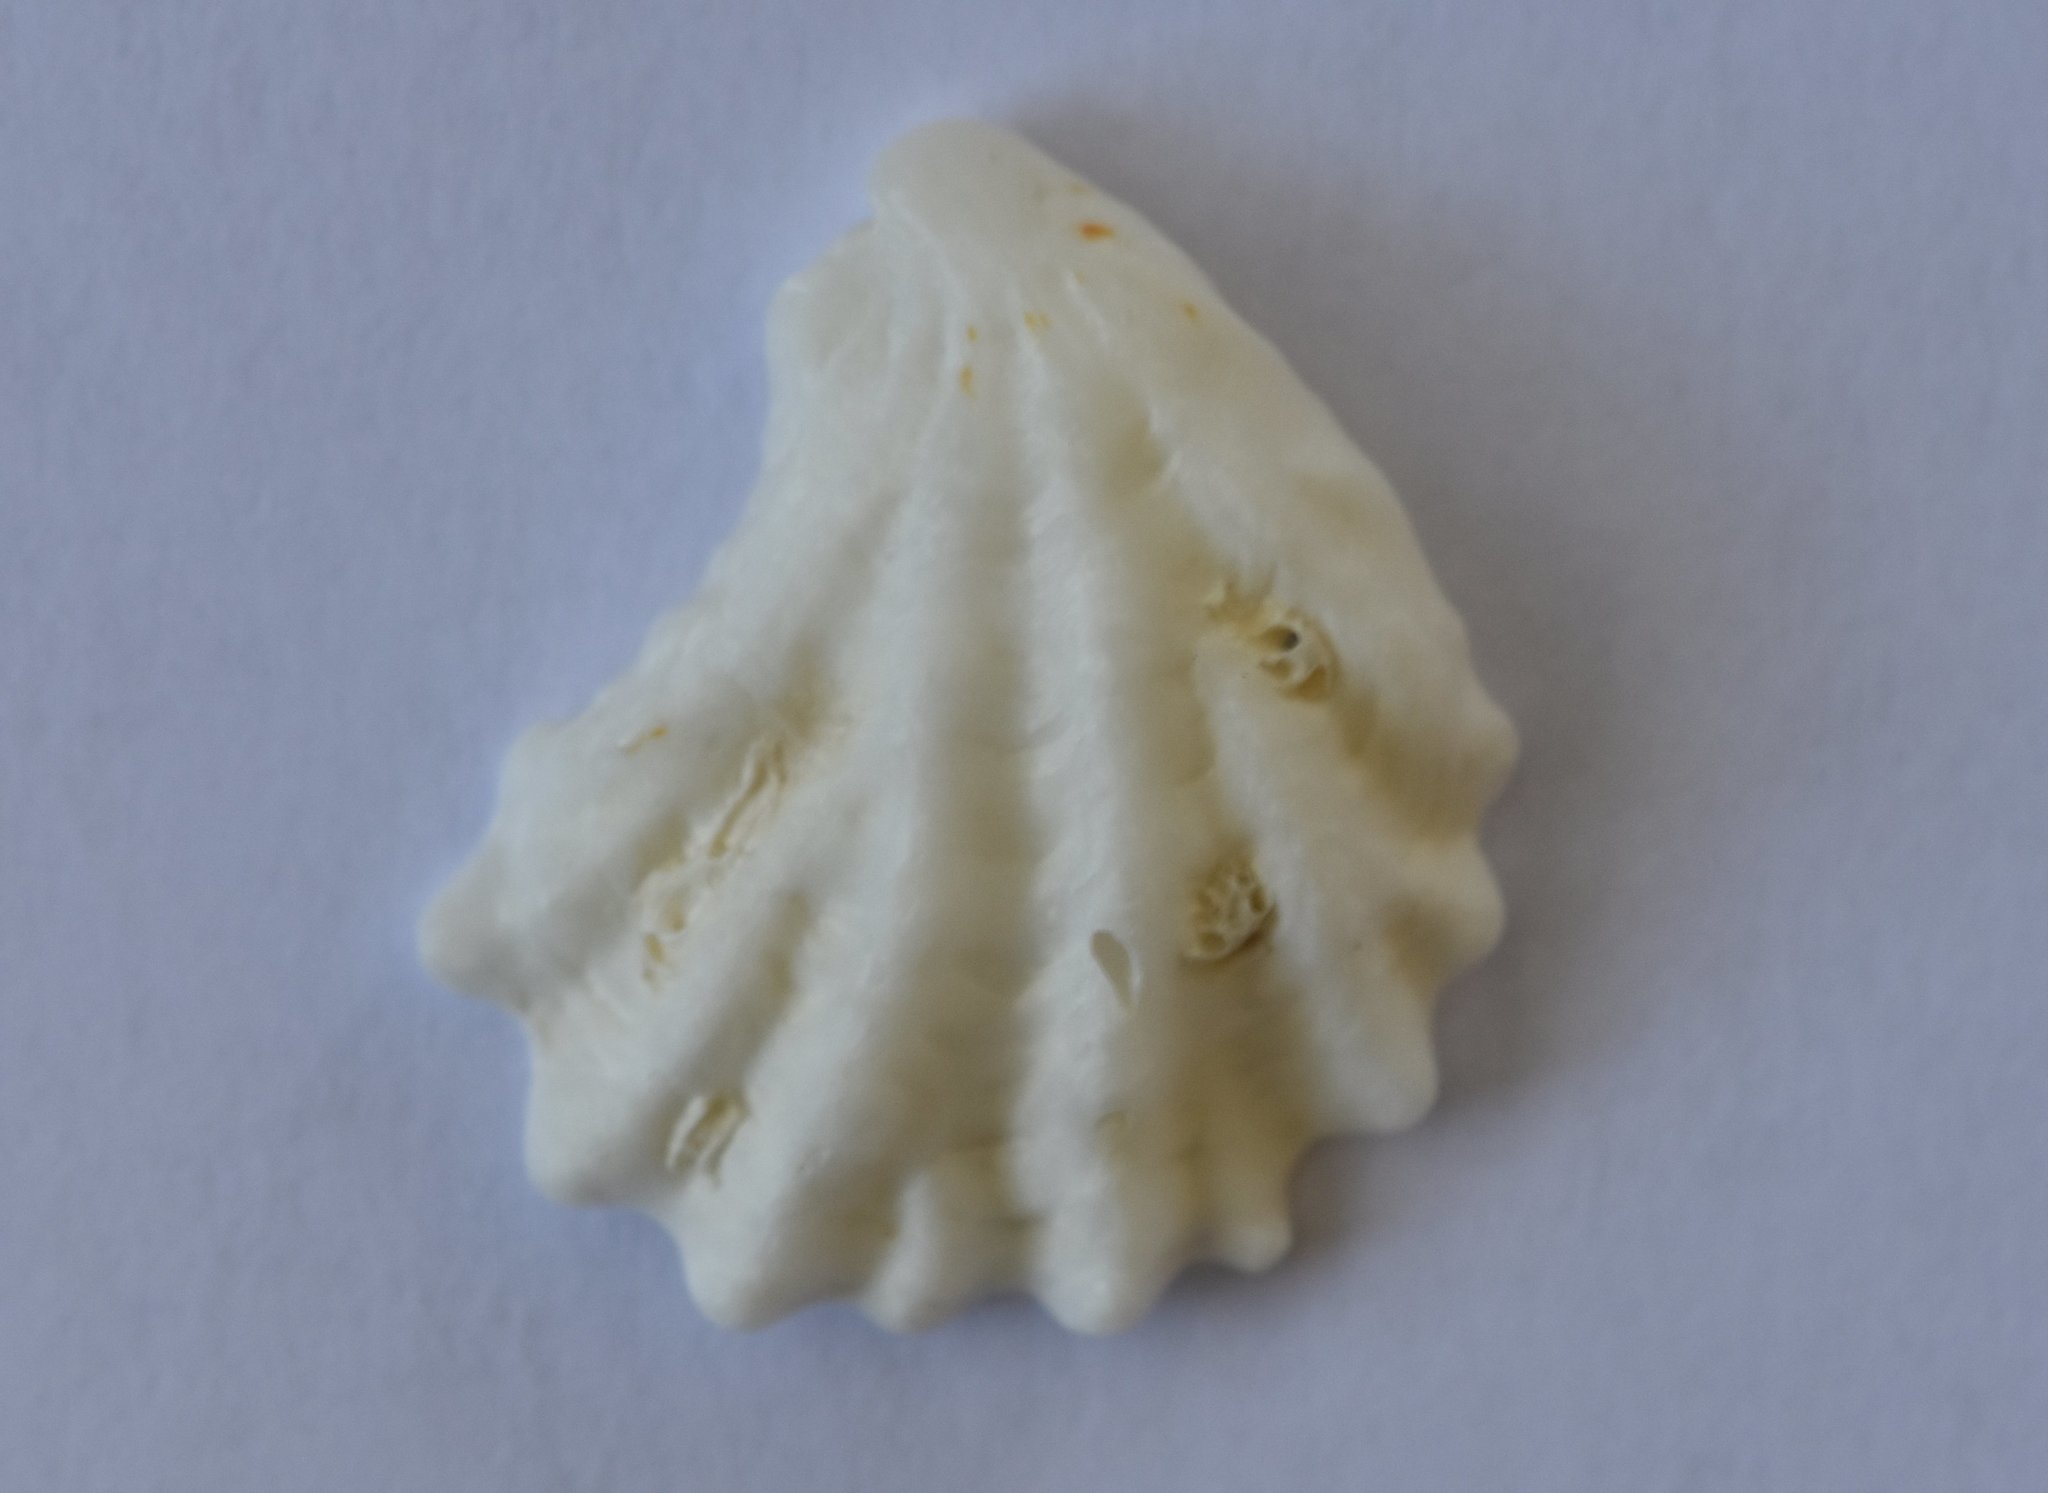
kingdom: Animalia
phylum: Mollusca
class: Bivalvia
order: Pectinida
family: Plicatulidae
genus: Plicatula
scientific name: Plicatula gibbosa
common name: Atlantic kitten's paw
